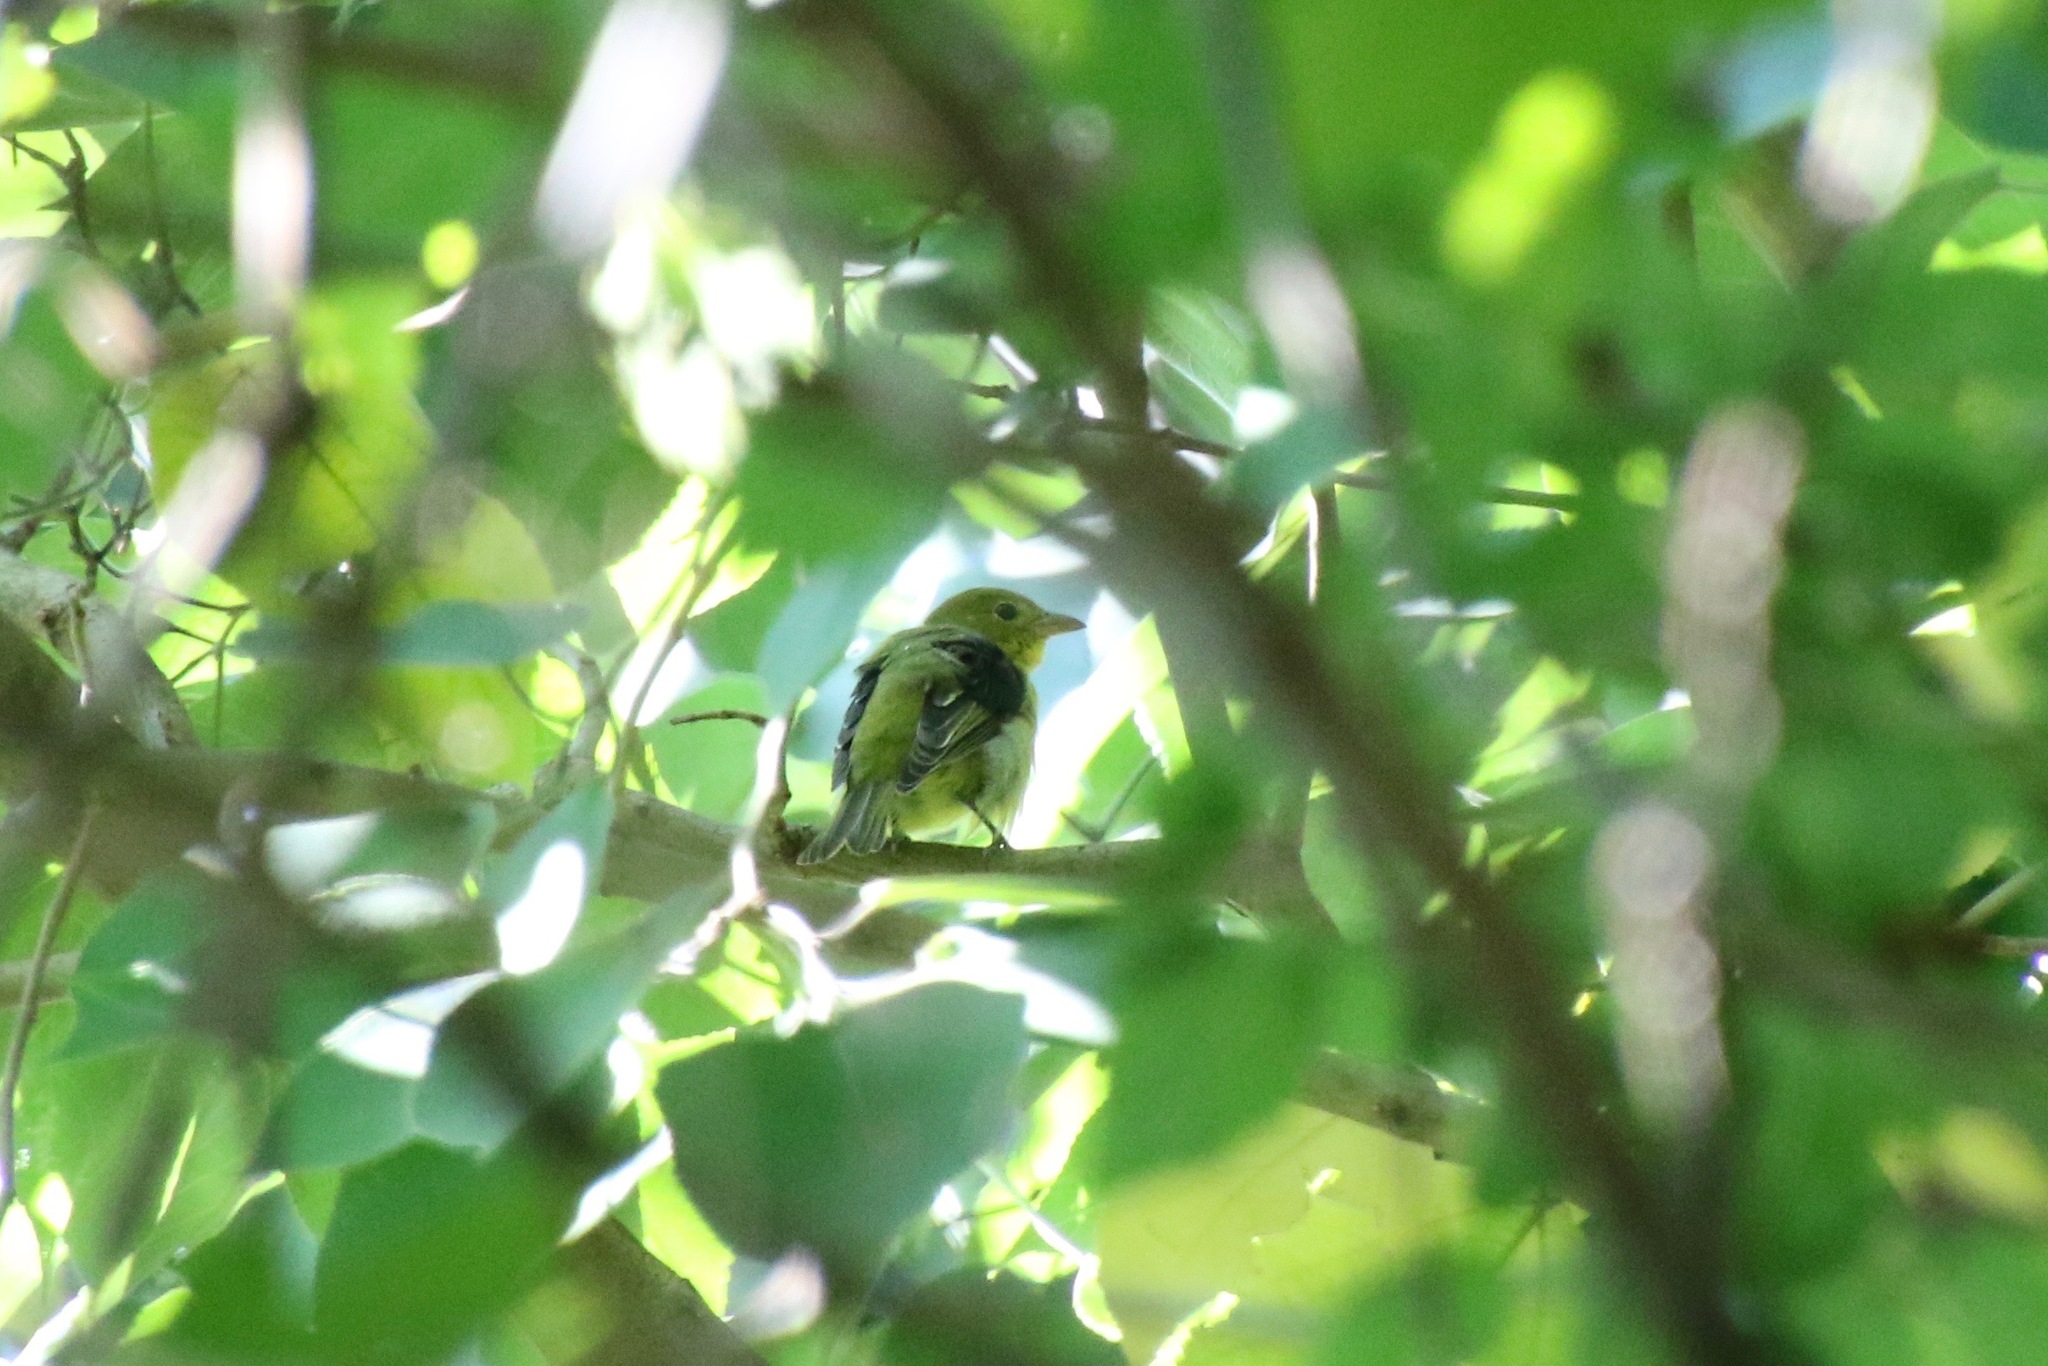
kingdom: Animalia
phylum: Chordata
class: Aves
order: Passeriformes
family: Cardinalidae
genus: Piranga
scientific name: Piranga olivacea
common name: Scarlet tanager
